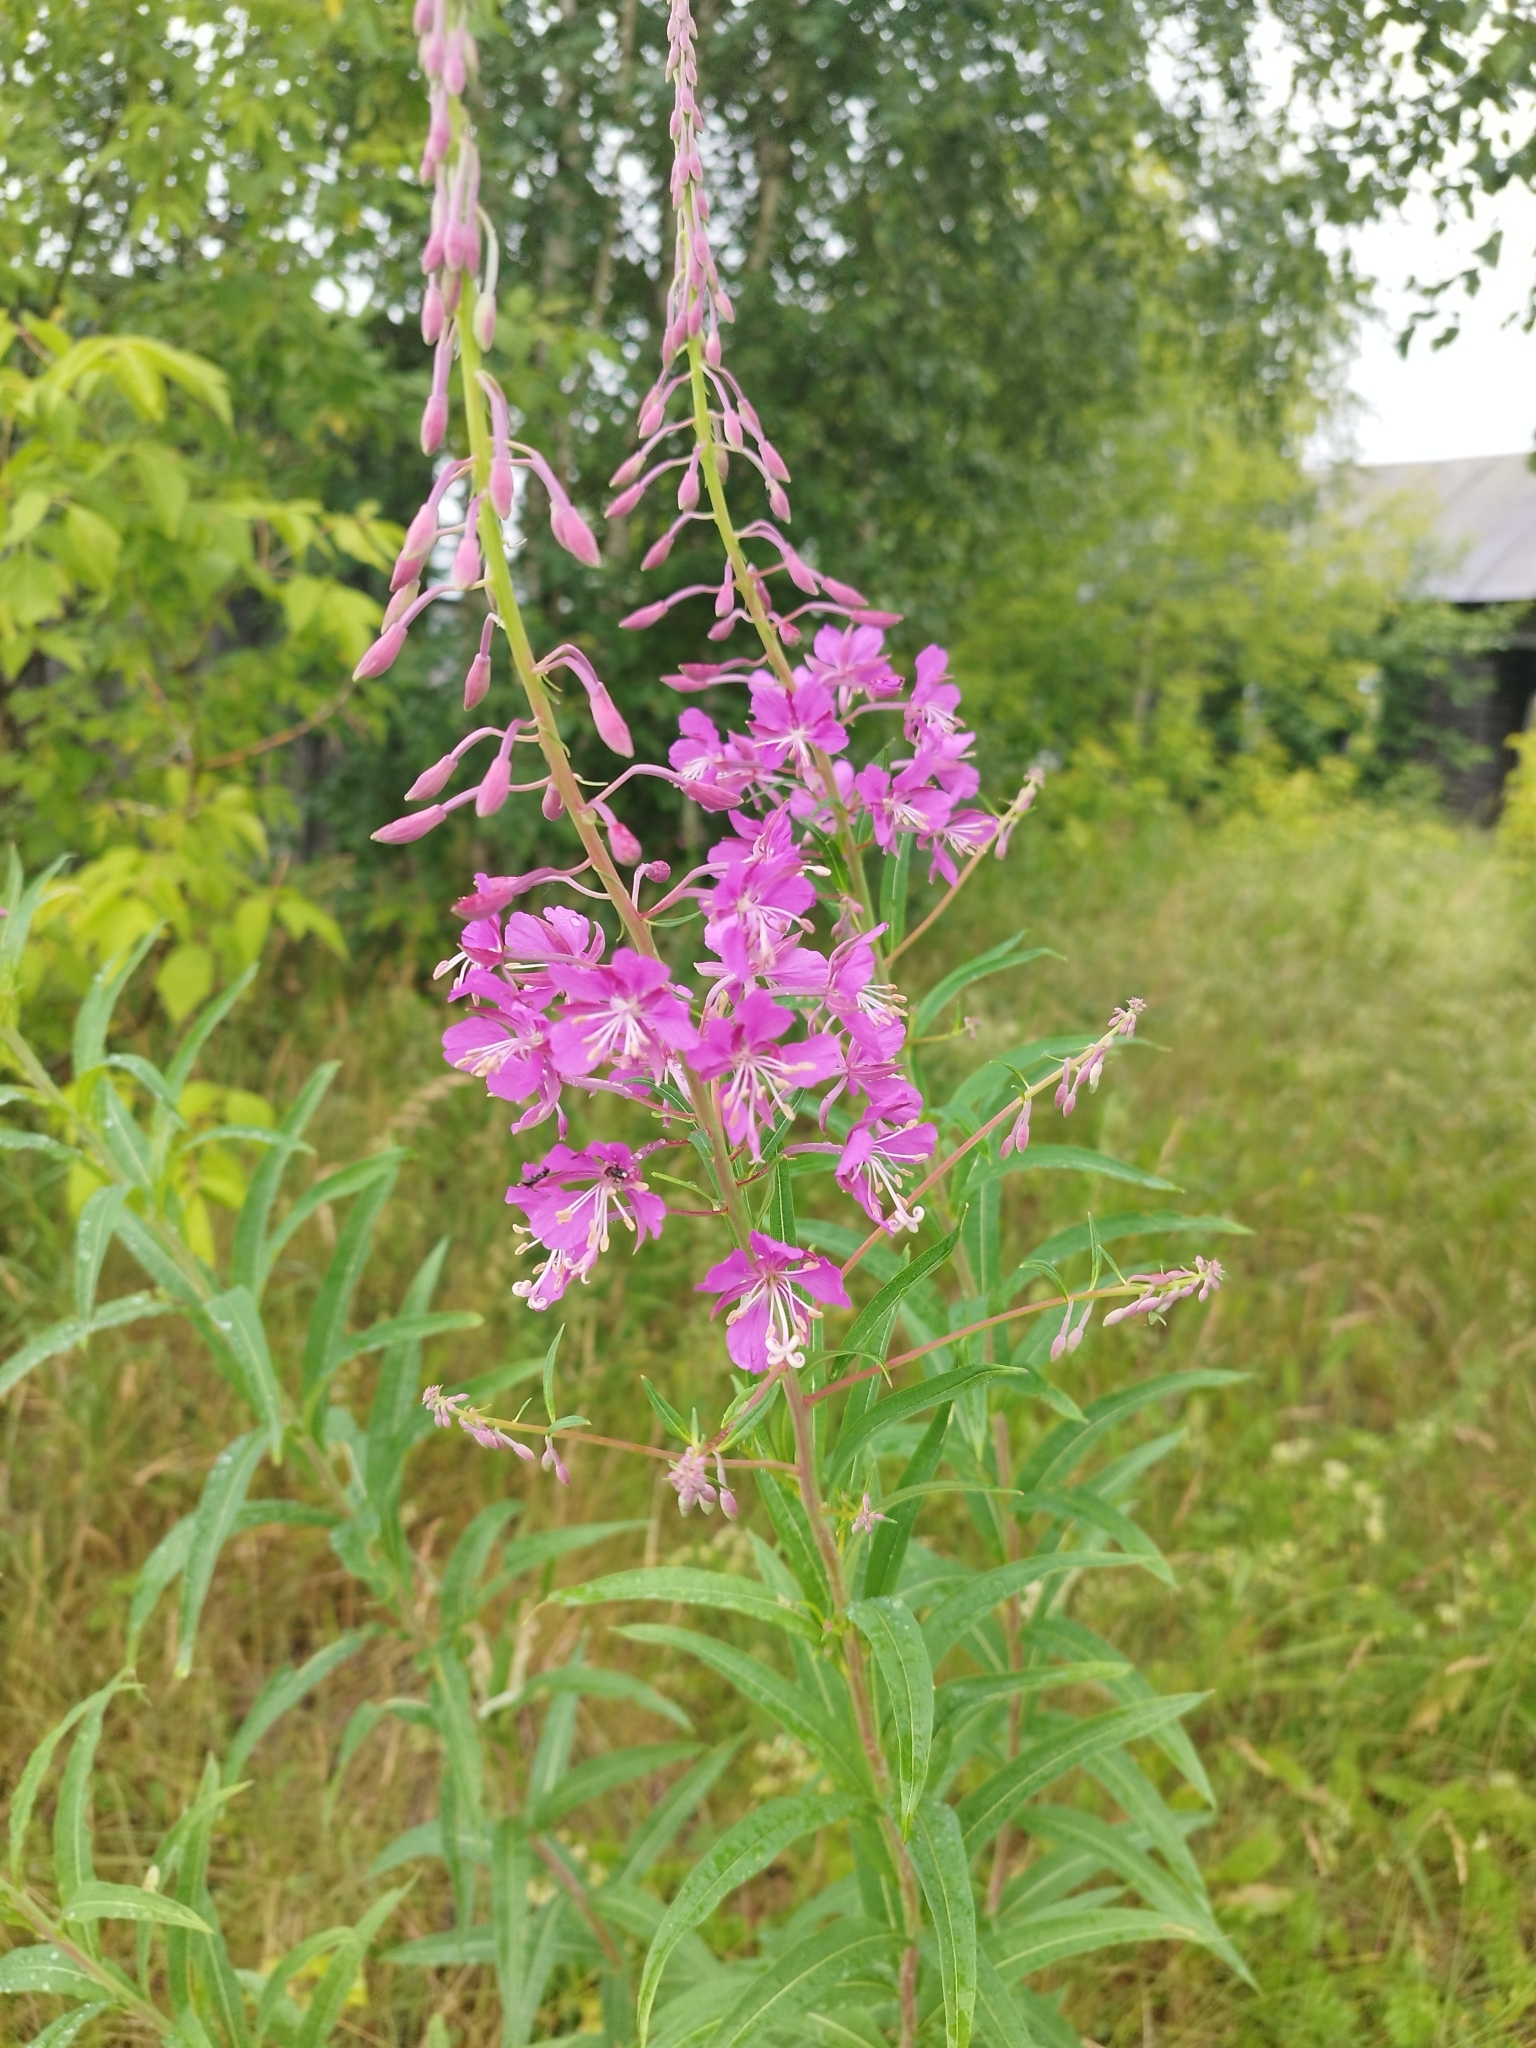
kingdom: Plantae
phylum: Tracheophyta
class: Magnoliopsida
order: Myrtales
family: Onagraceae
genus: Chamaenerion
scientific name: Chamaenerion angustifolium
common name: Fireweed
